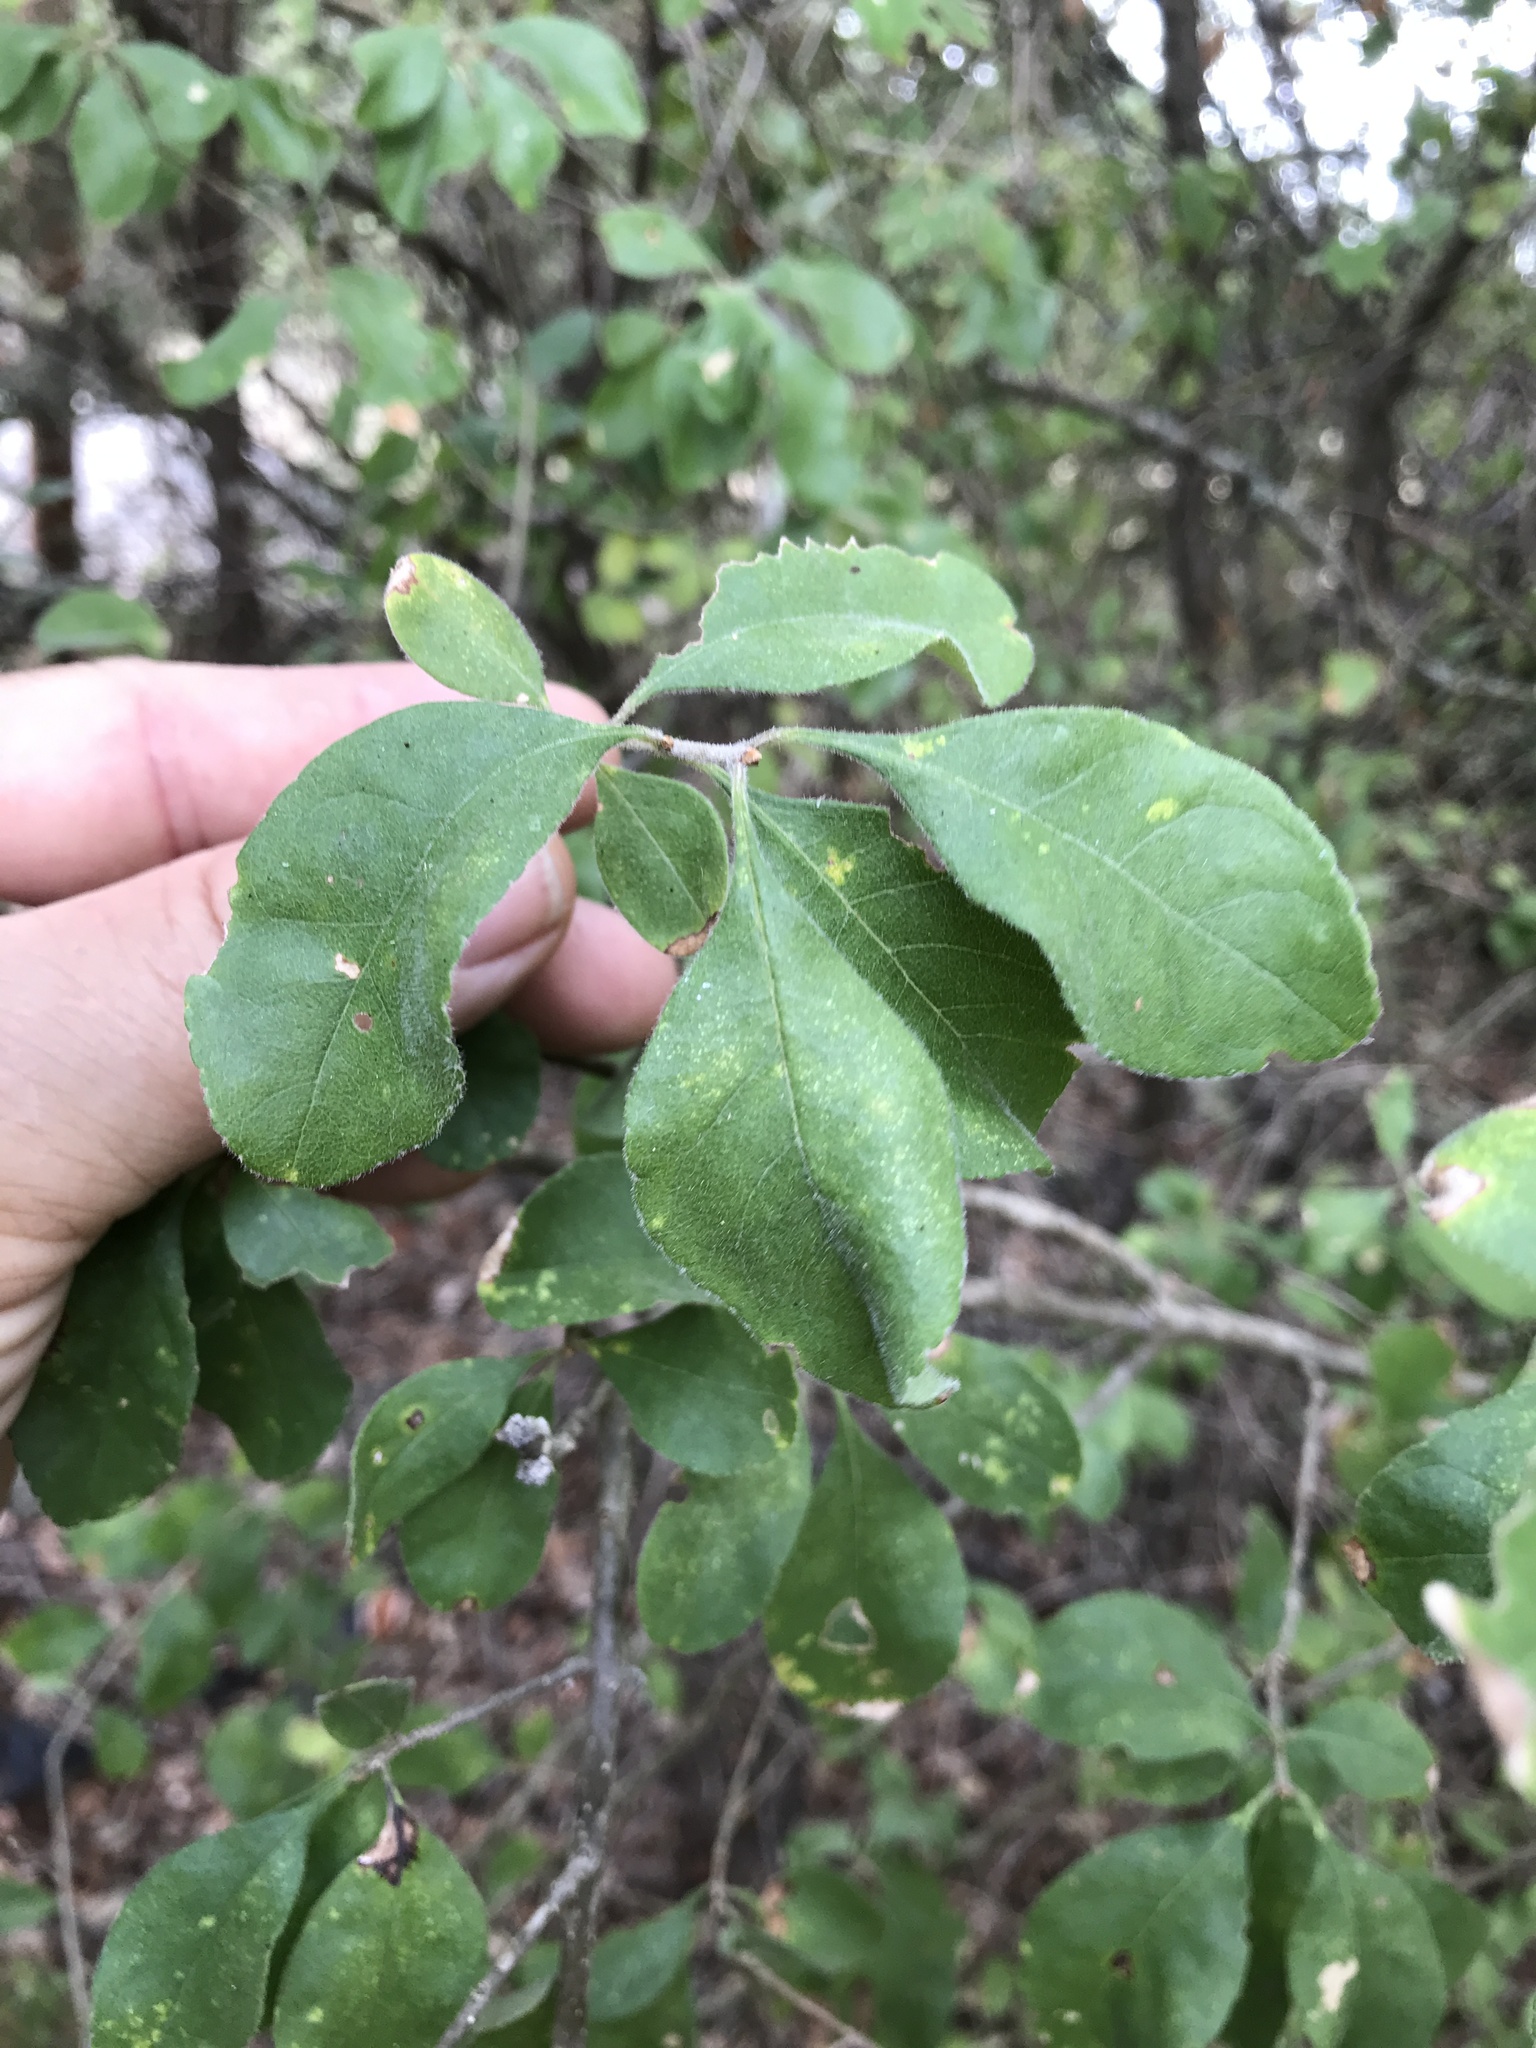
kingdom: Plantae
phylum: Tracheophyta
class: Magnoliopsida
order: Lamiales
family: Oleaceae
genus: Forestiera
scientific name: Forestiera pubescens
